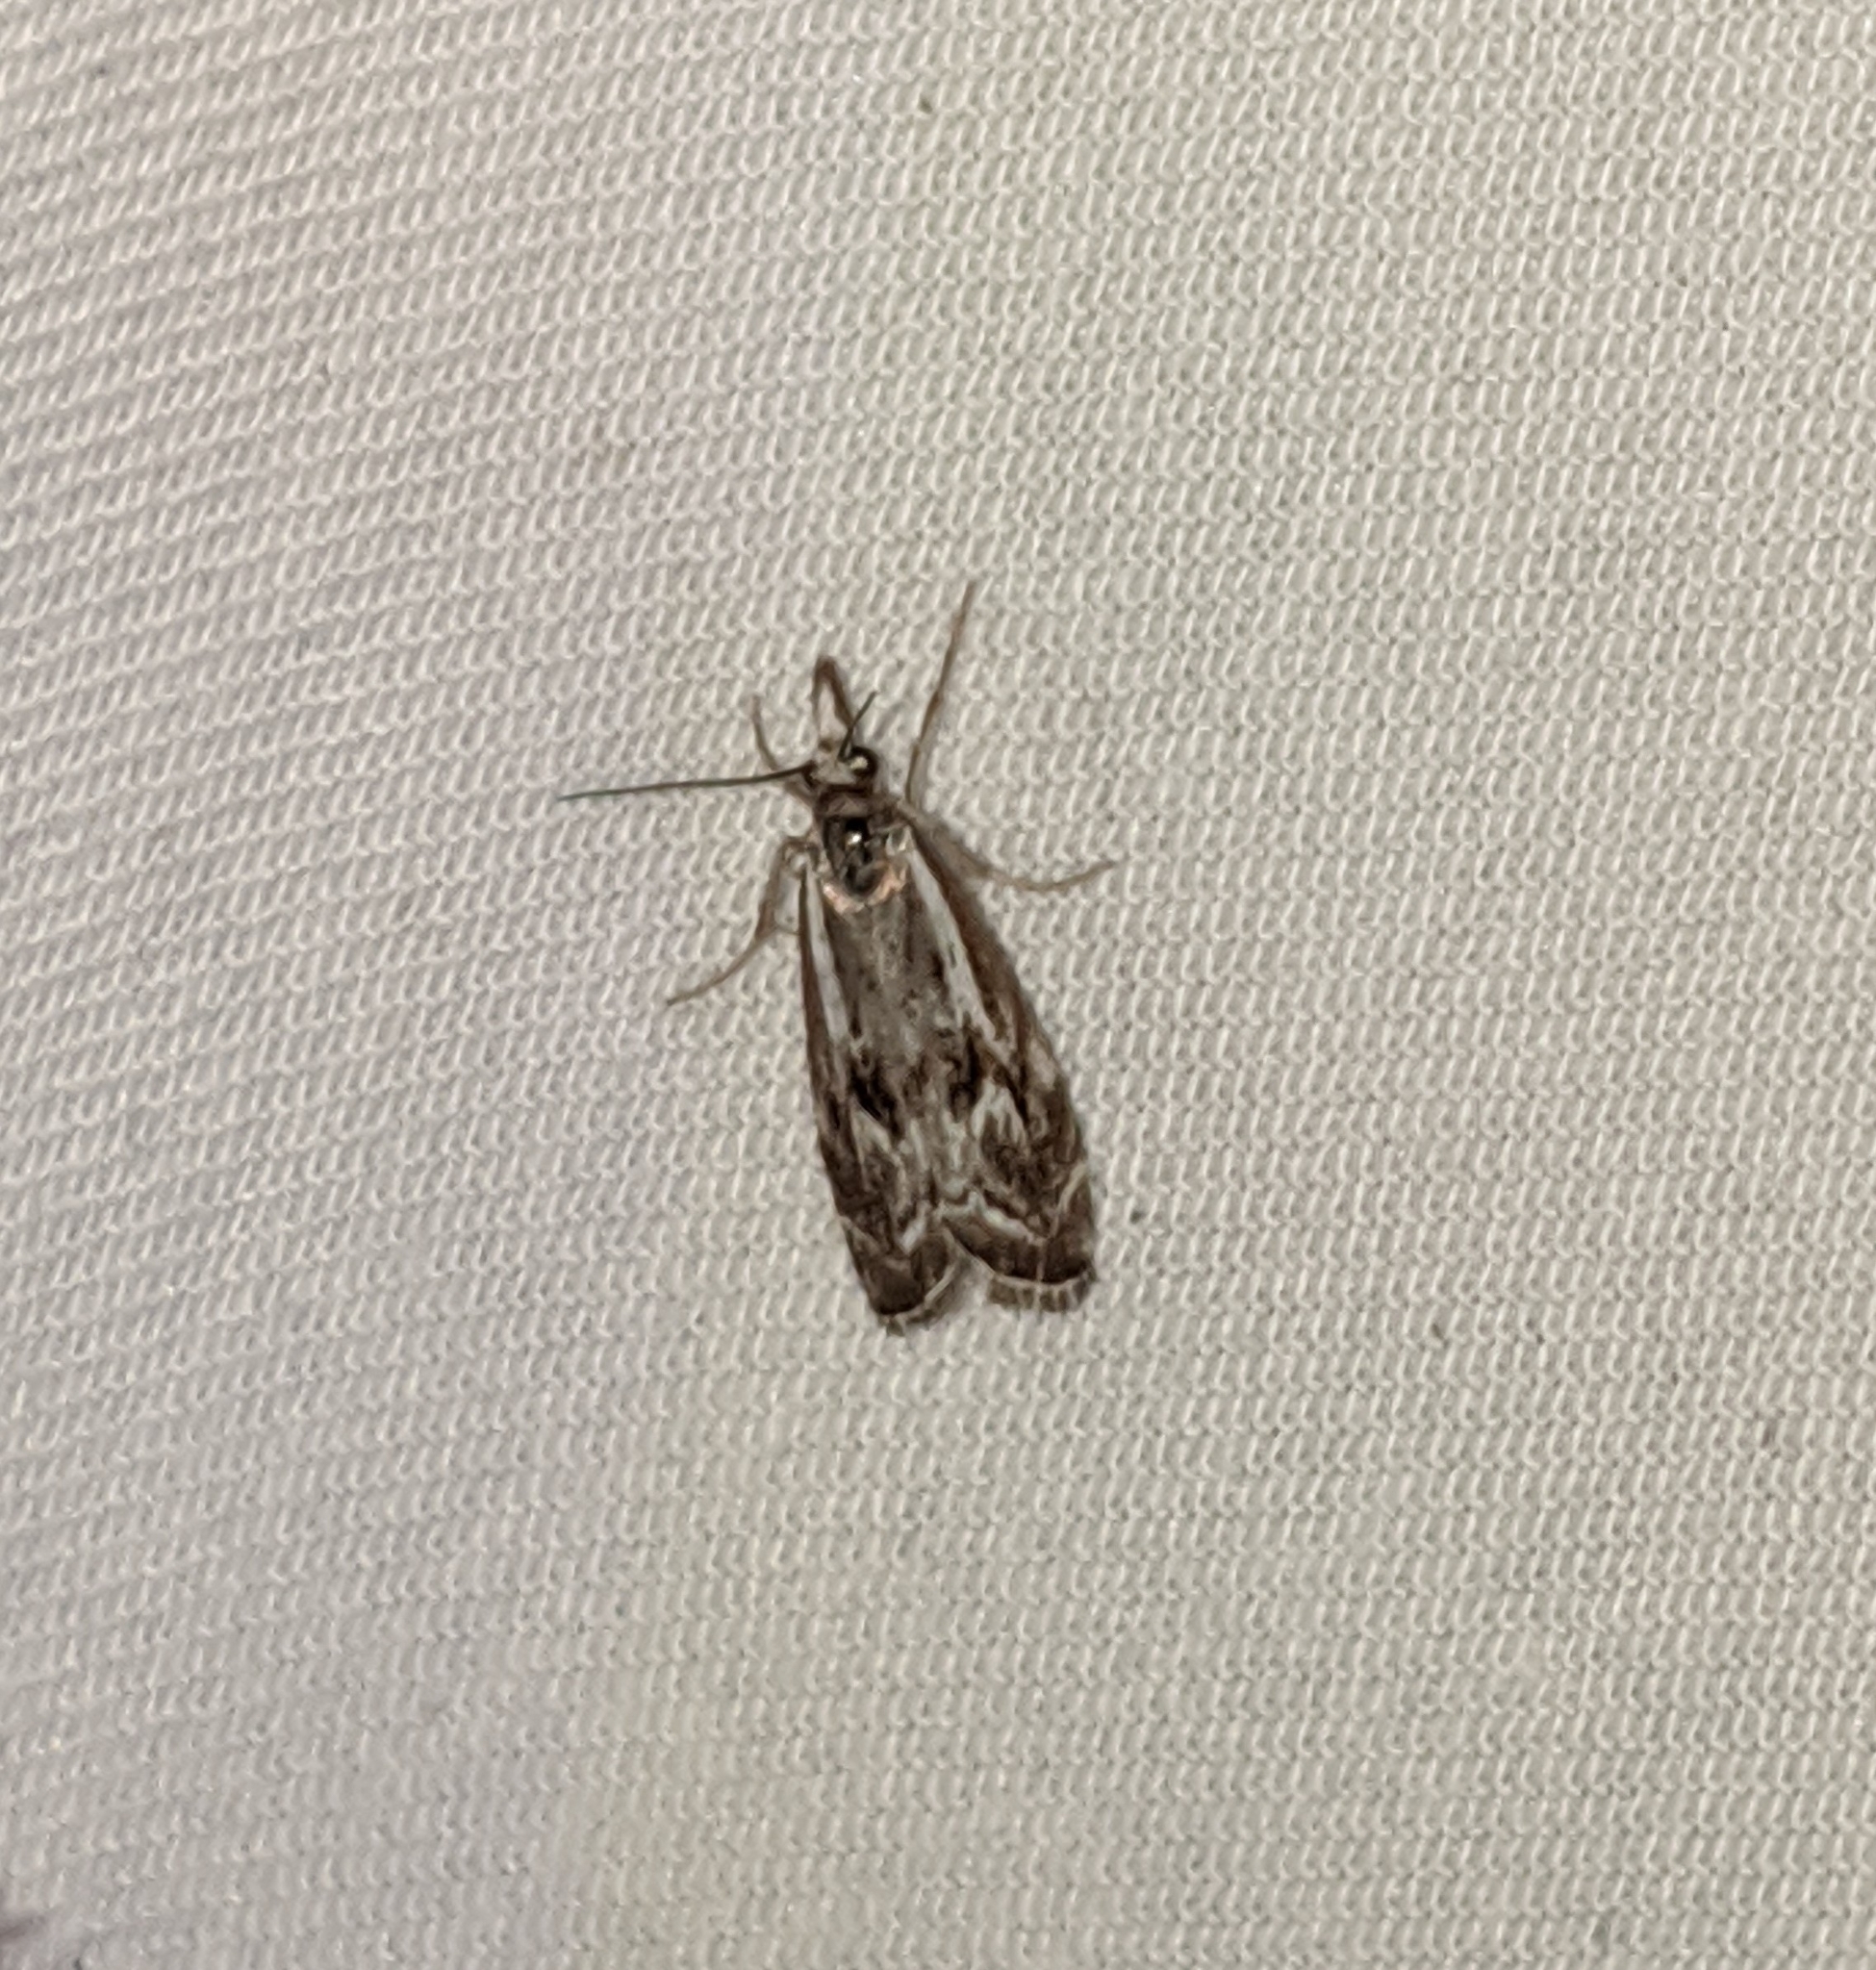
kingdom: Animalia
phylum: Arthropoda
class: Insecta
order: Lepidoptera
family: Crambidae
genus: Catoptria
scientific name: Catoptria oregonicus
